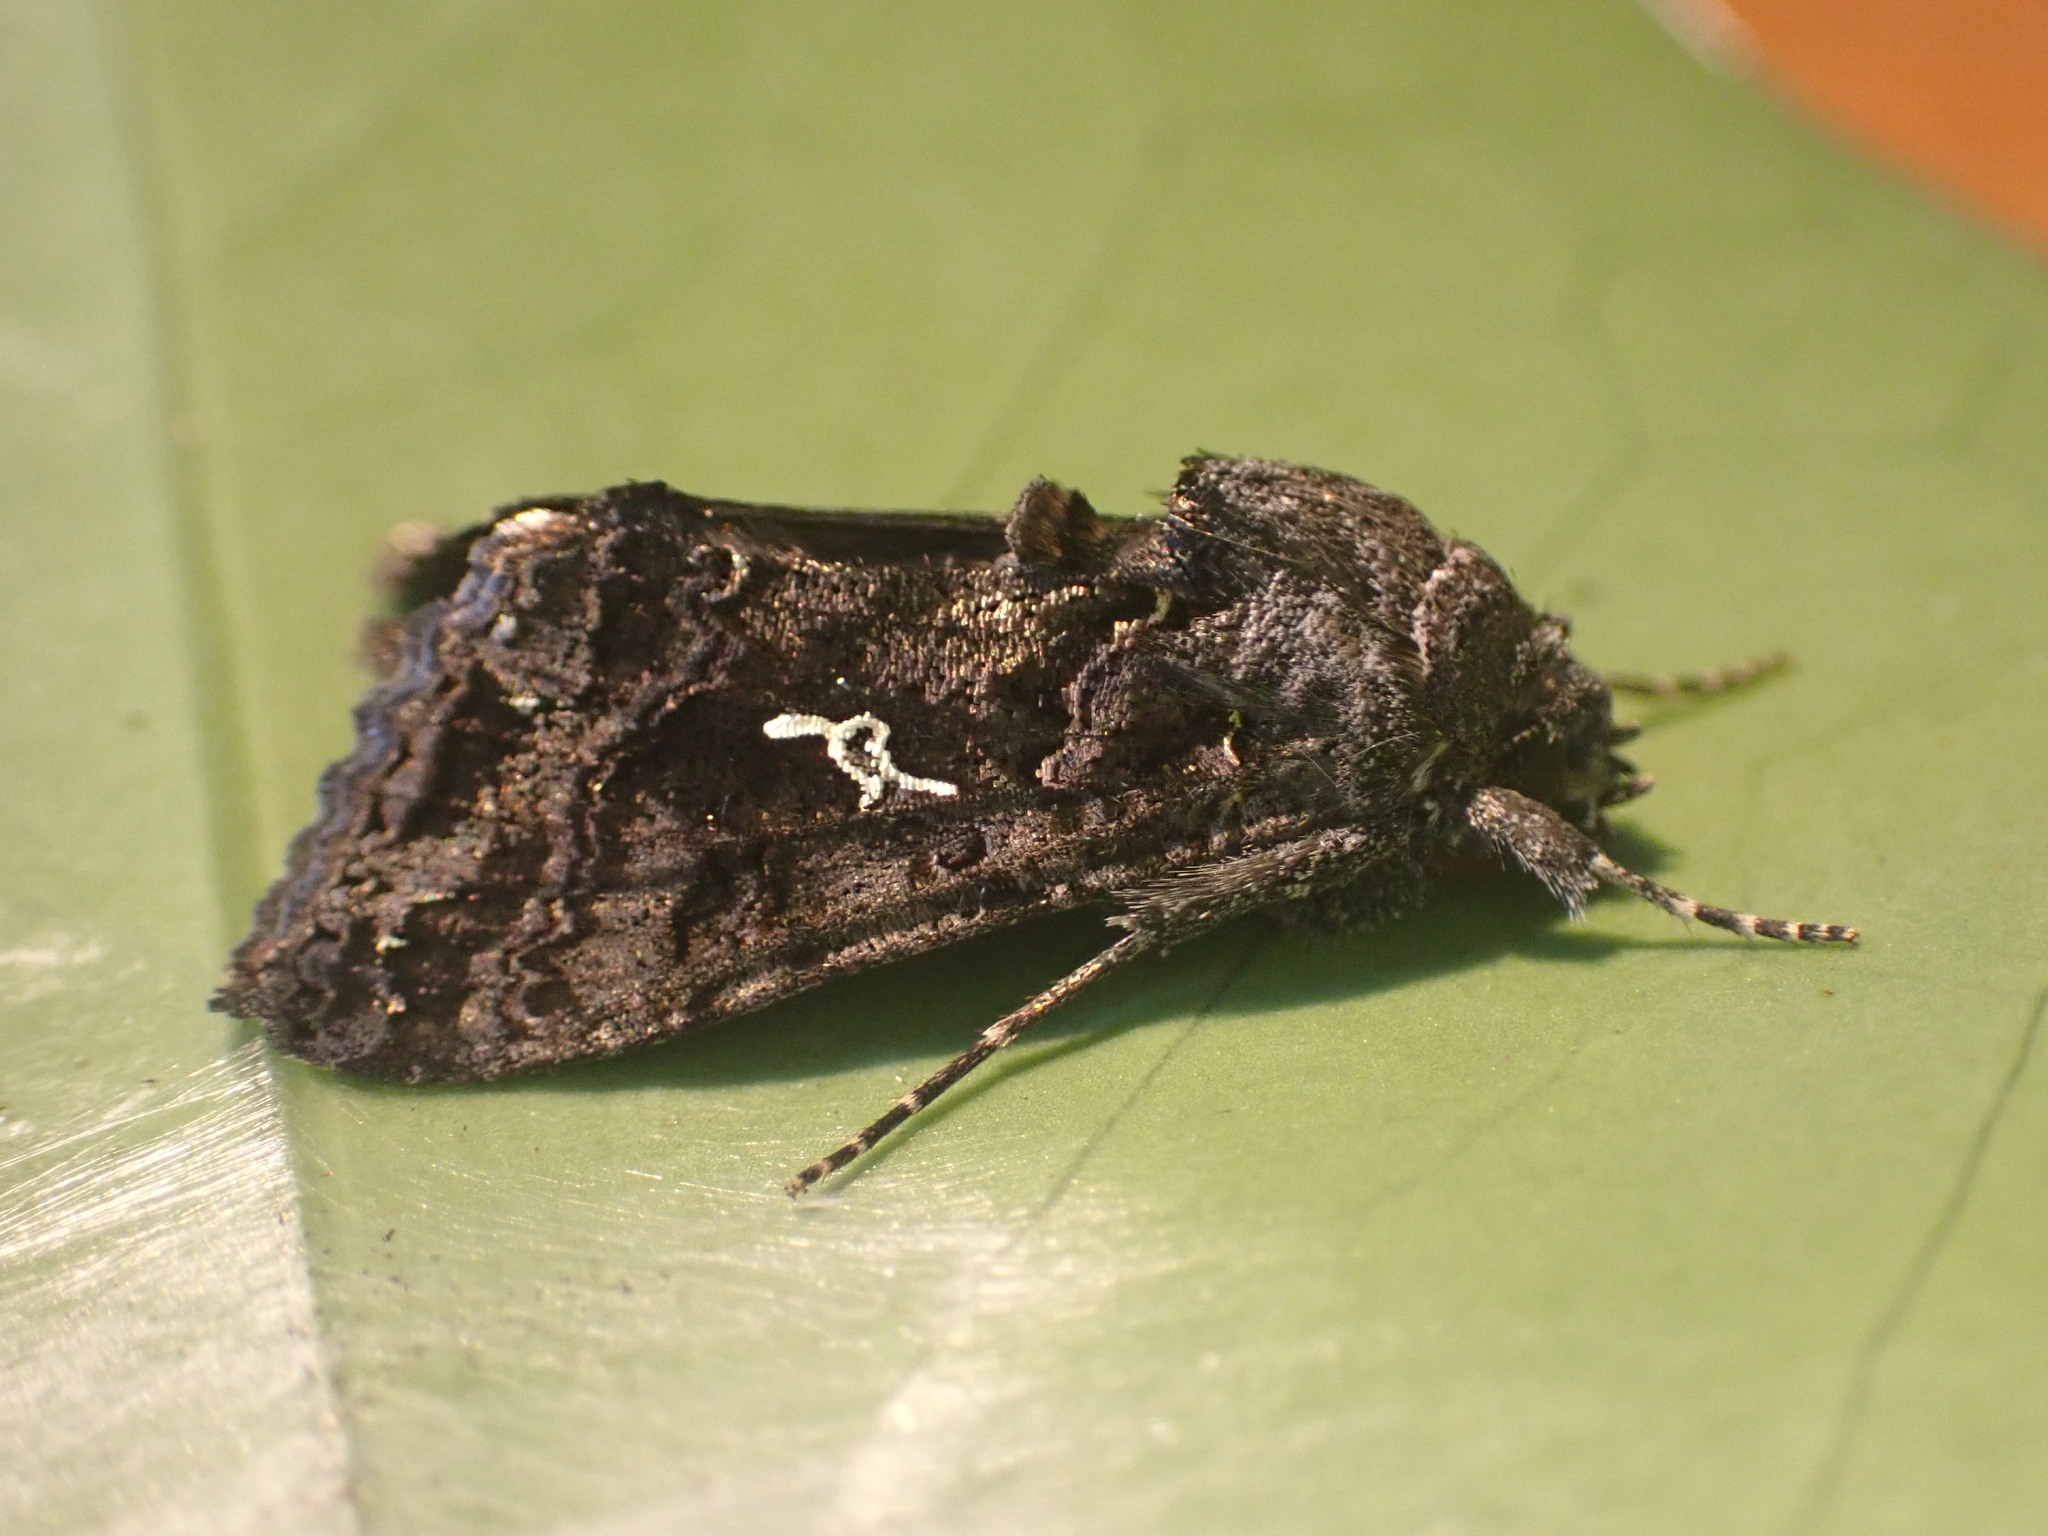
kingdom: Animalia
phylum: Arthropoda
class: Insecta
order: Lepidoptera
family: Noctuidae
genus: Ctenoplusia
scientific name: Ctenoplusia limbirena
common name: Scar bank gem
